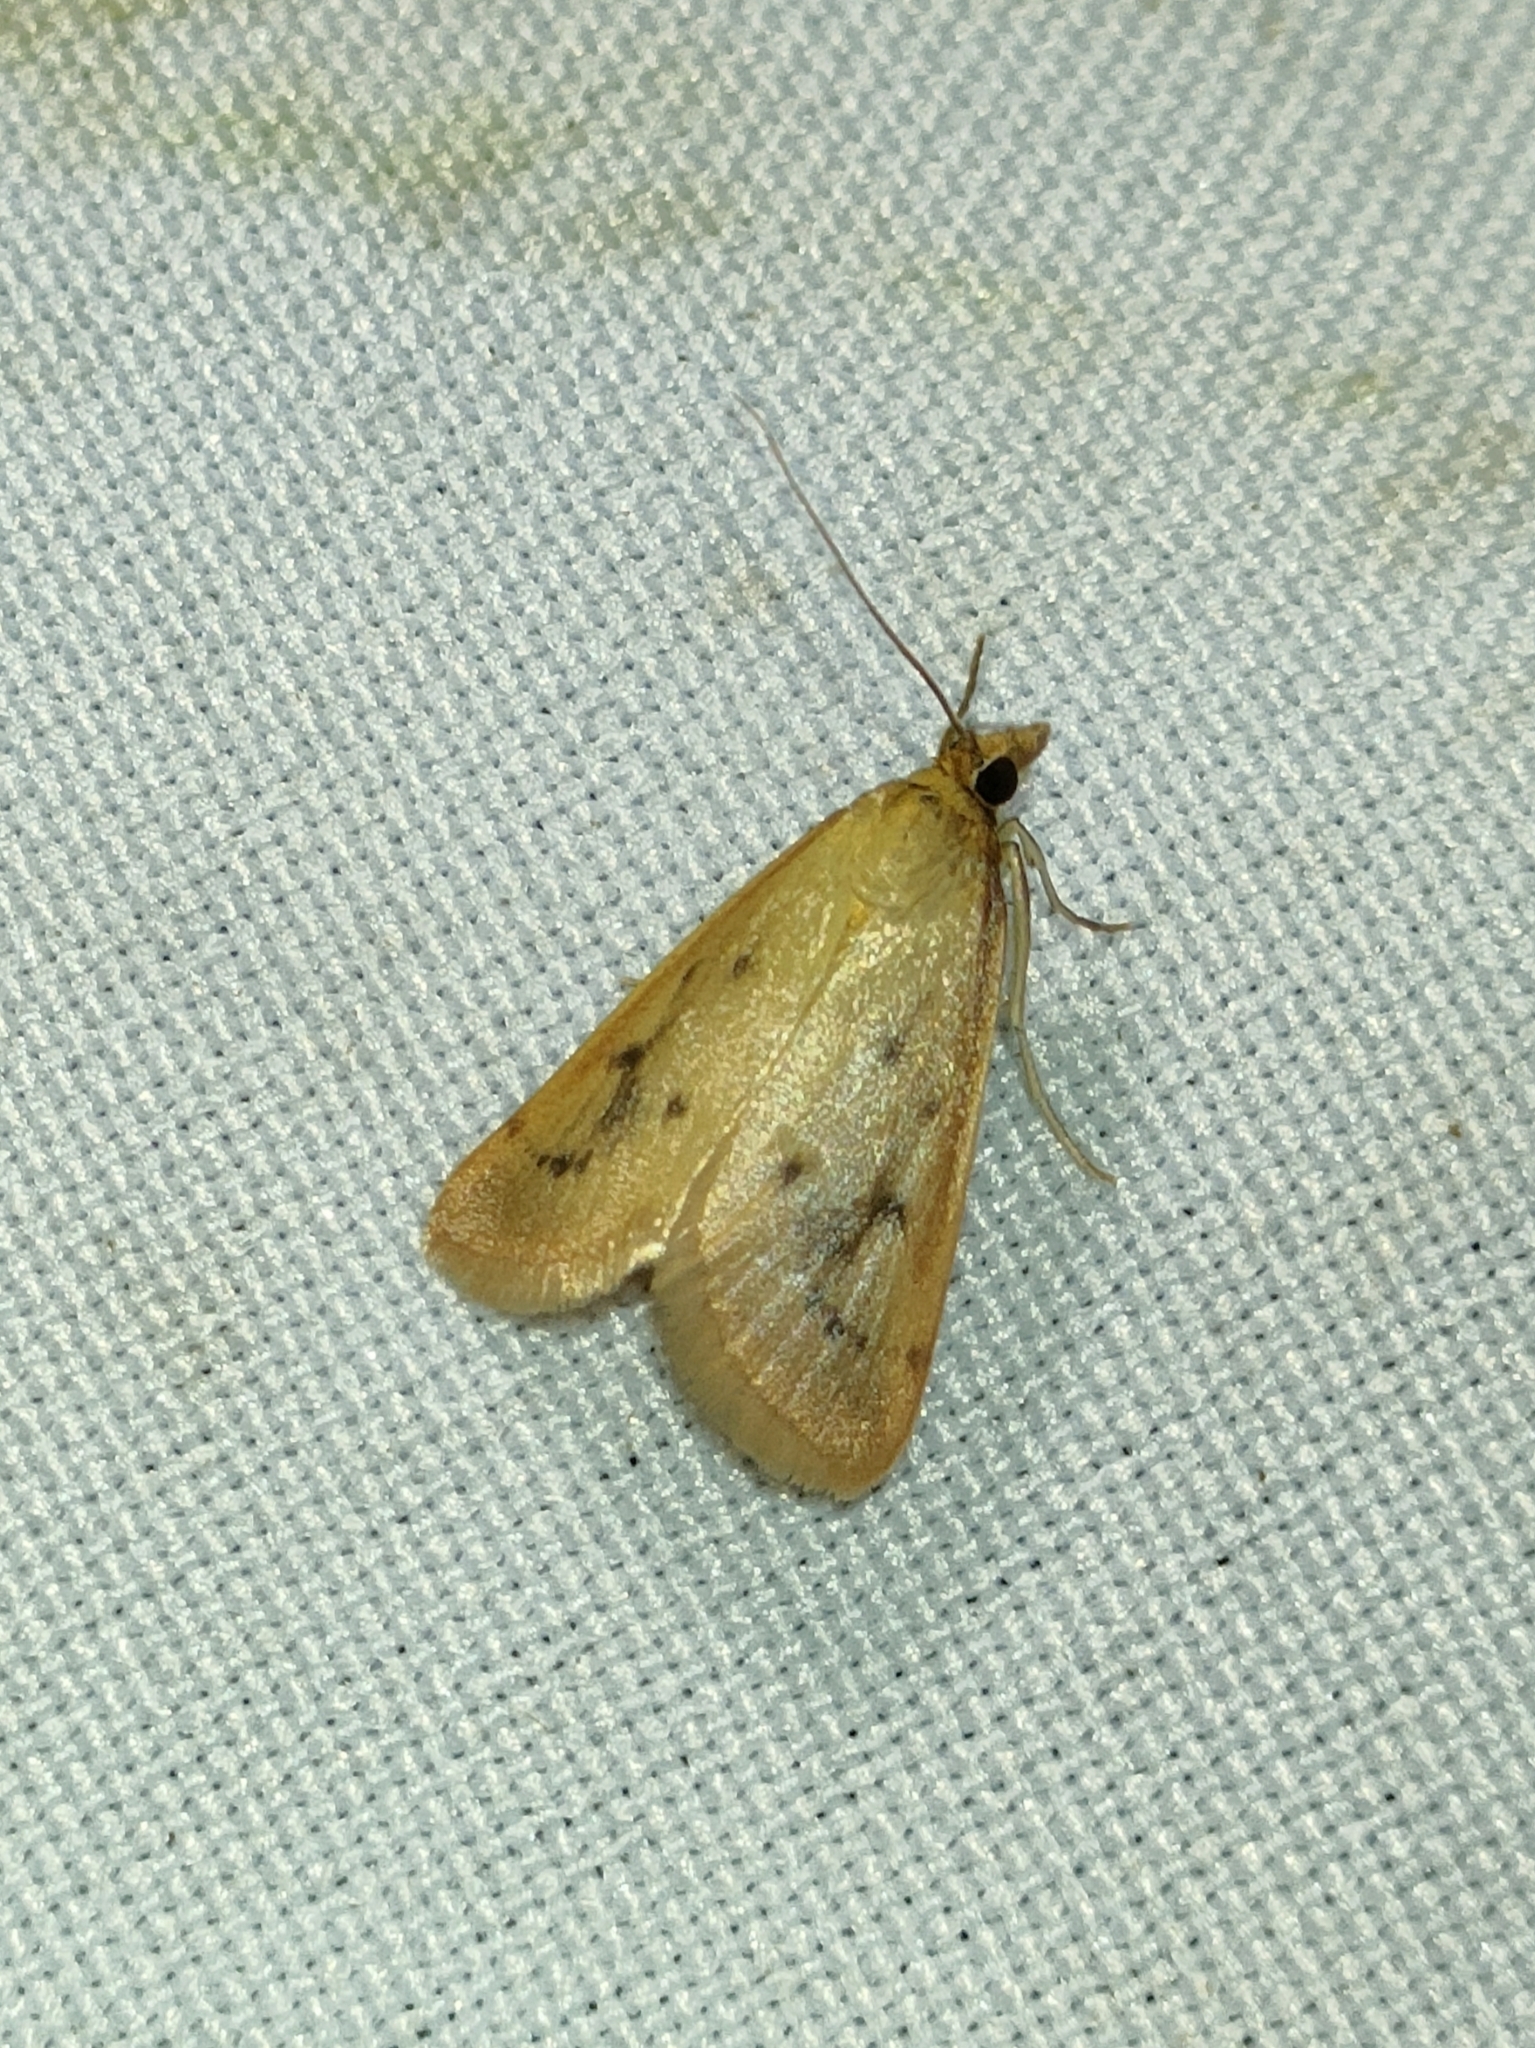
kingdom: Animalia
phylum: Arthropoda
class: Insecta
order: Lepidoptera
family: Crambidae
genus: Achyra
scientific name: Achyra nudalis
